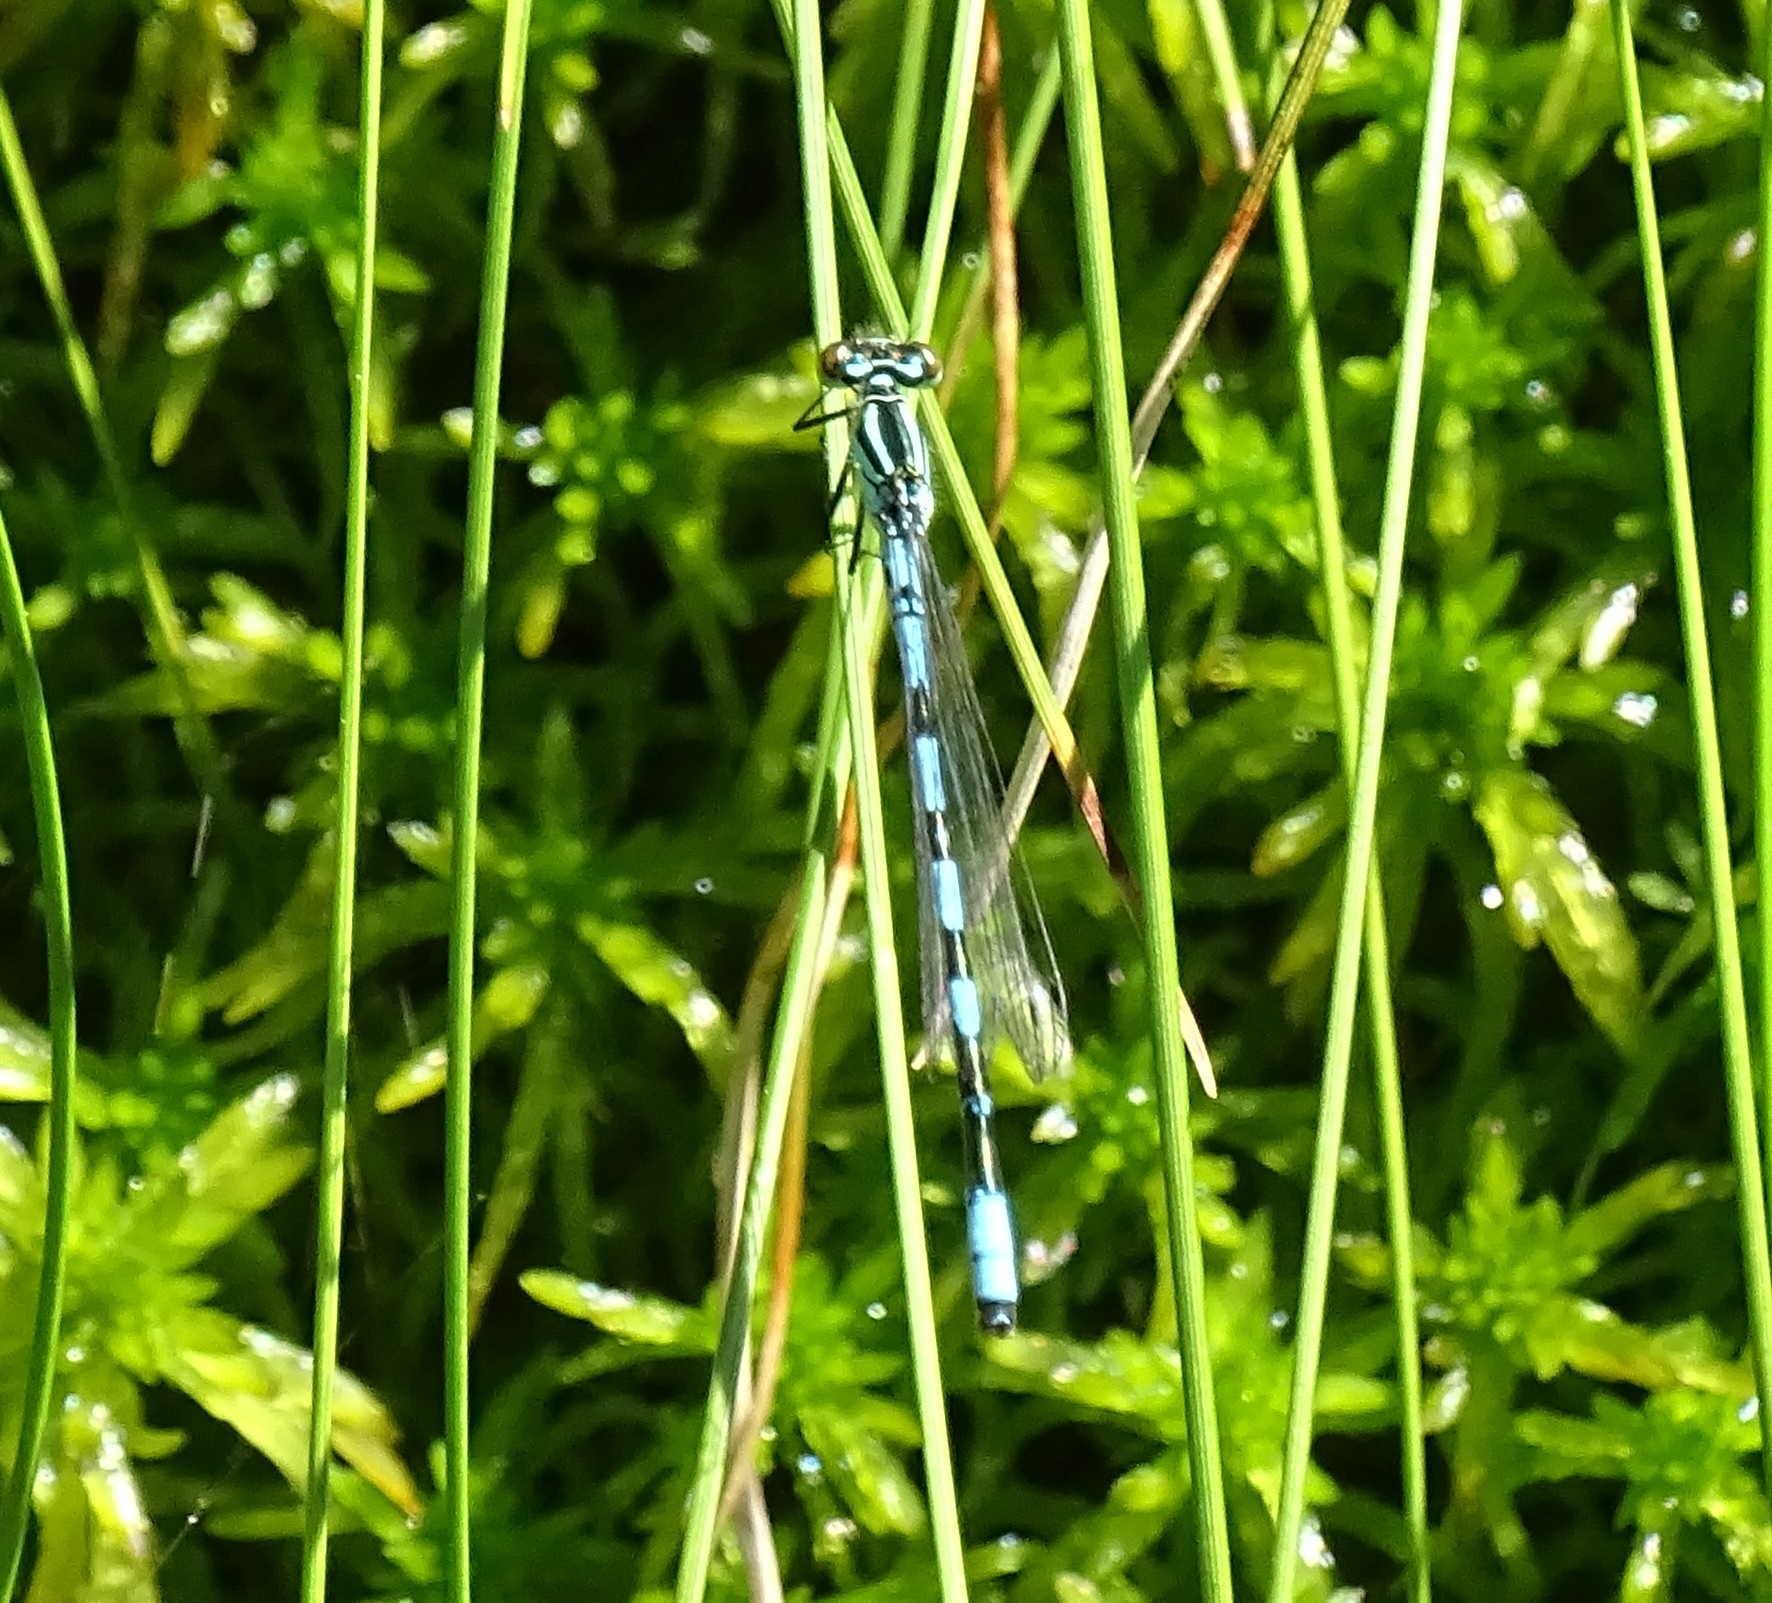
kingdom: Animalia
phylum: Arthropoda
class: Insecta
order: Odonata
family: Coenagrionidae
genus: Coenagrion
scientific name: Coenagrion hastulatum
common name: Spearhead bluet
